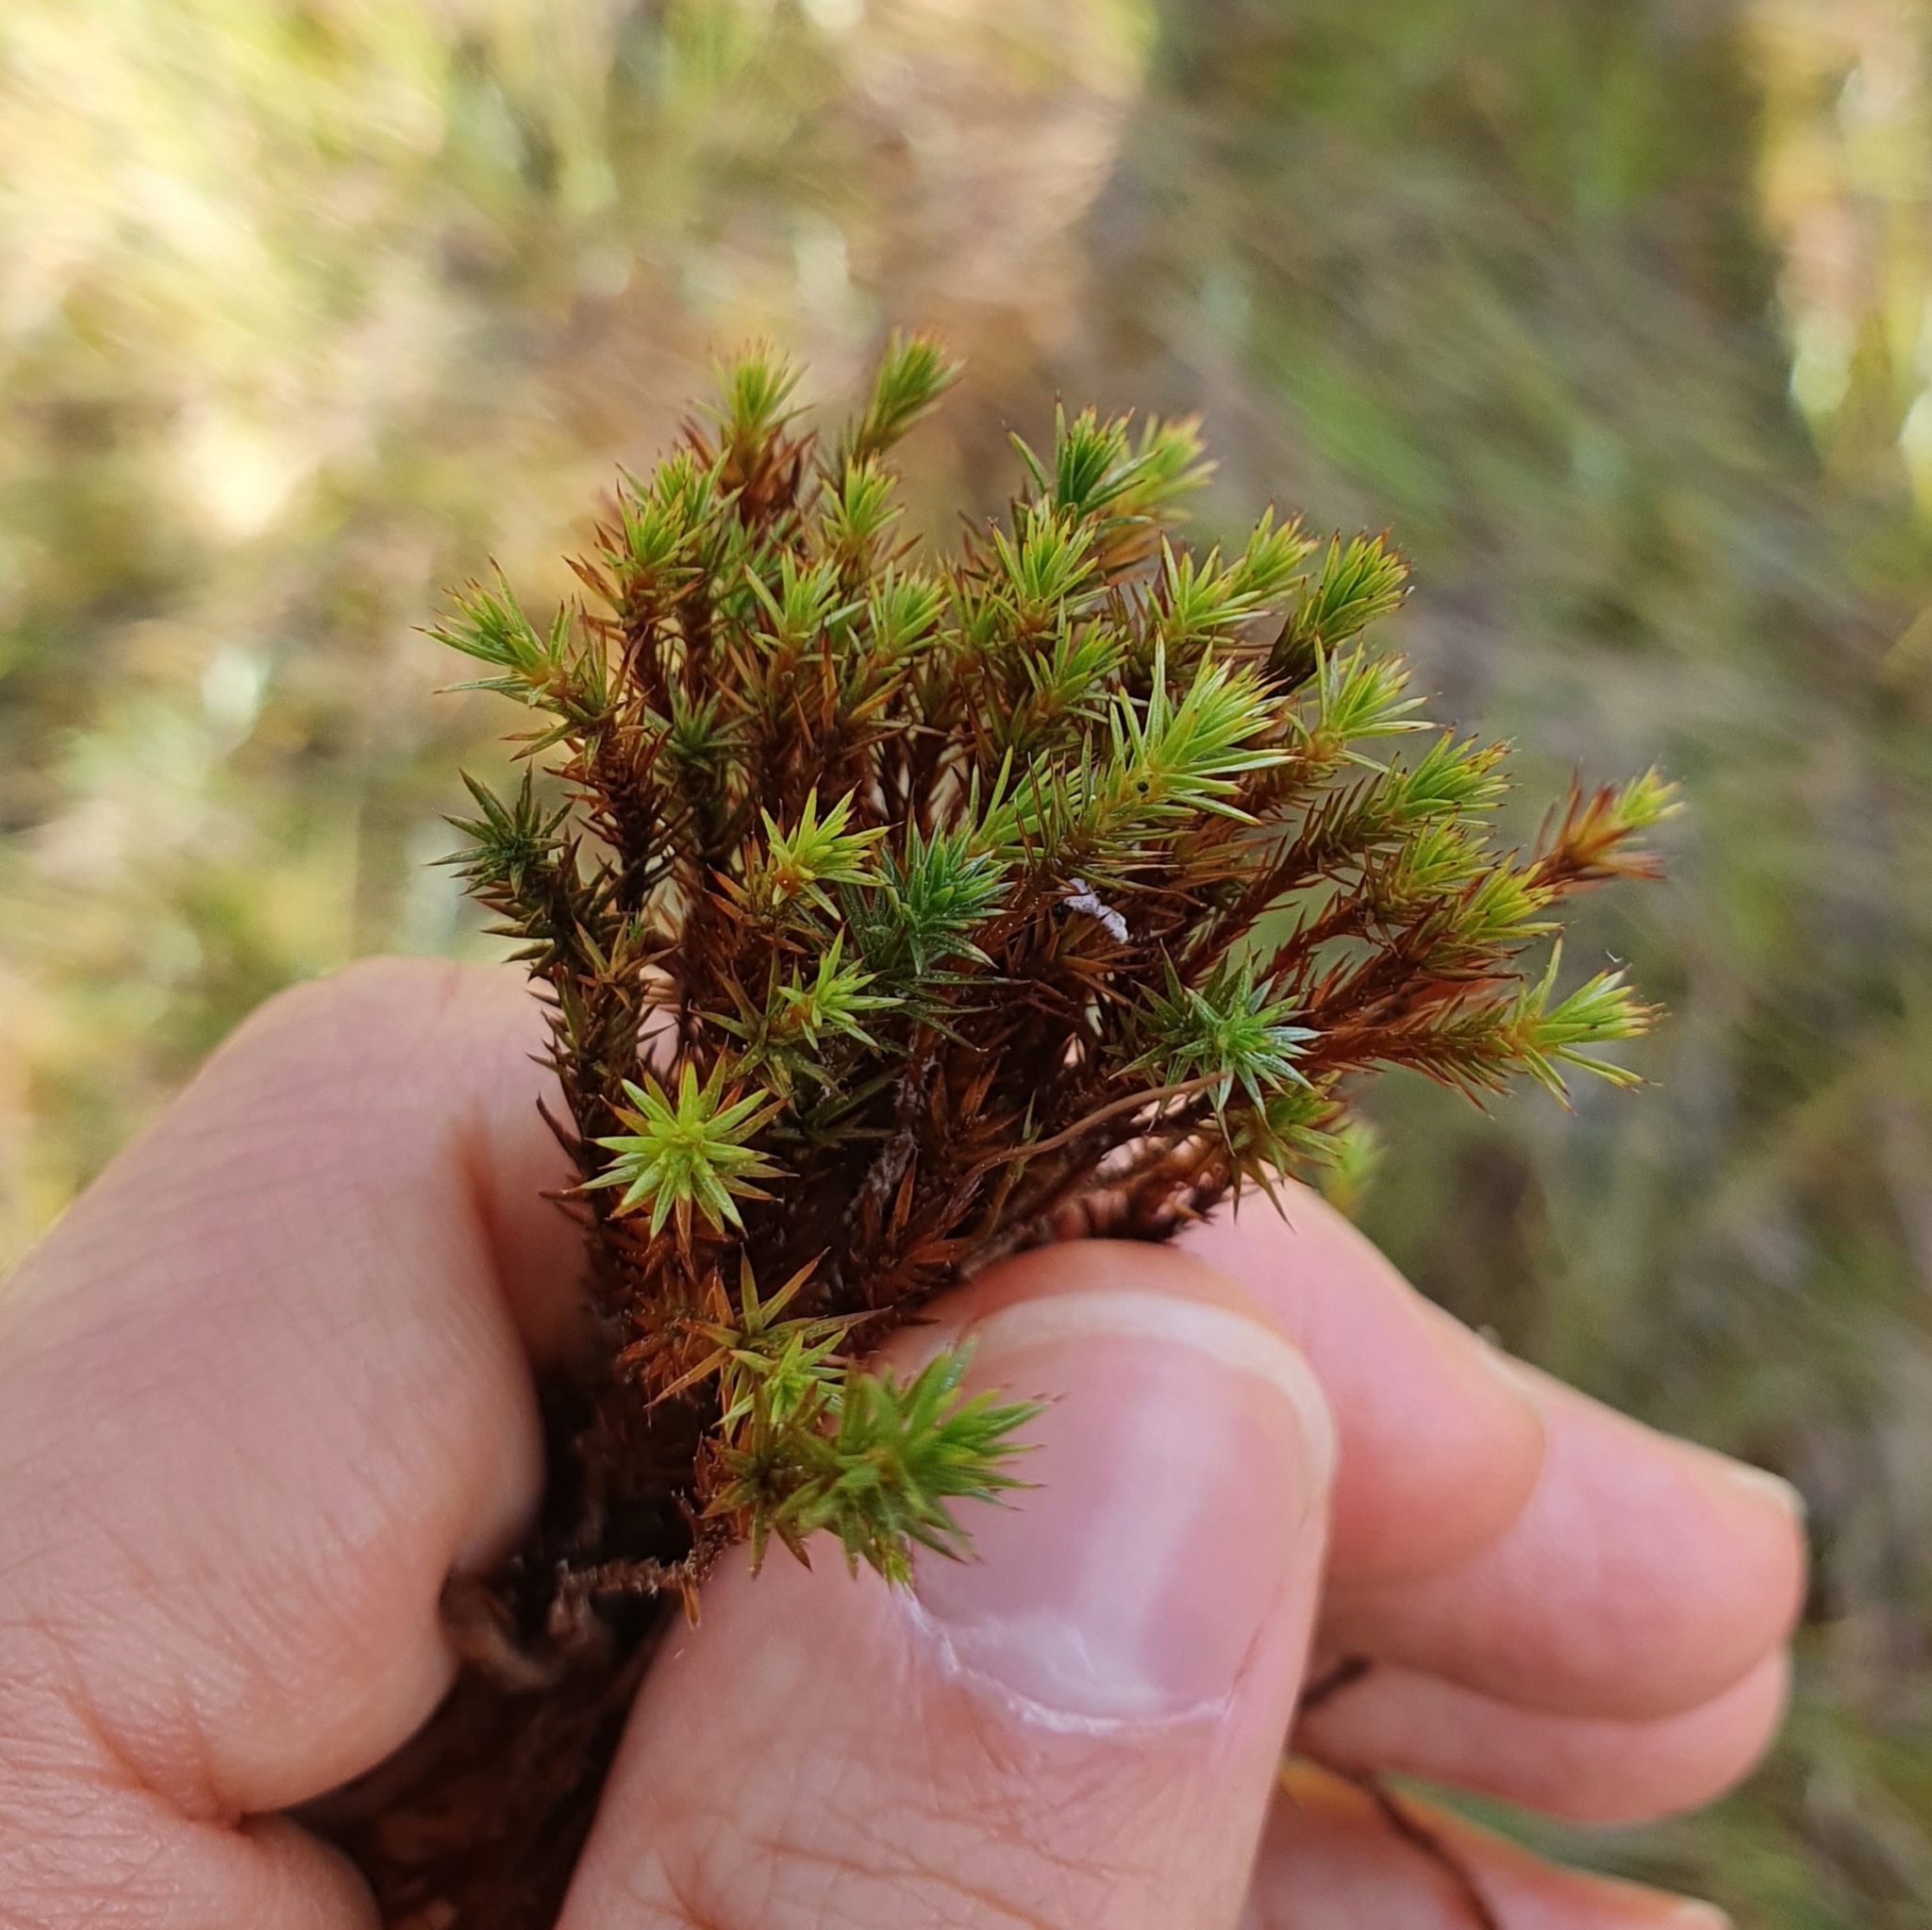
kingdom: Plantae
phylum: Bryophyta
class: Polytrichopsida
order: Polytrichales
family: Polytrichaceae
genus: Polytrichum
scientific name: Polytrichum strictum
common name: Bog haircap moss
